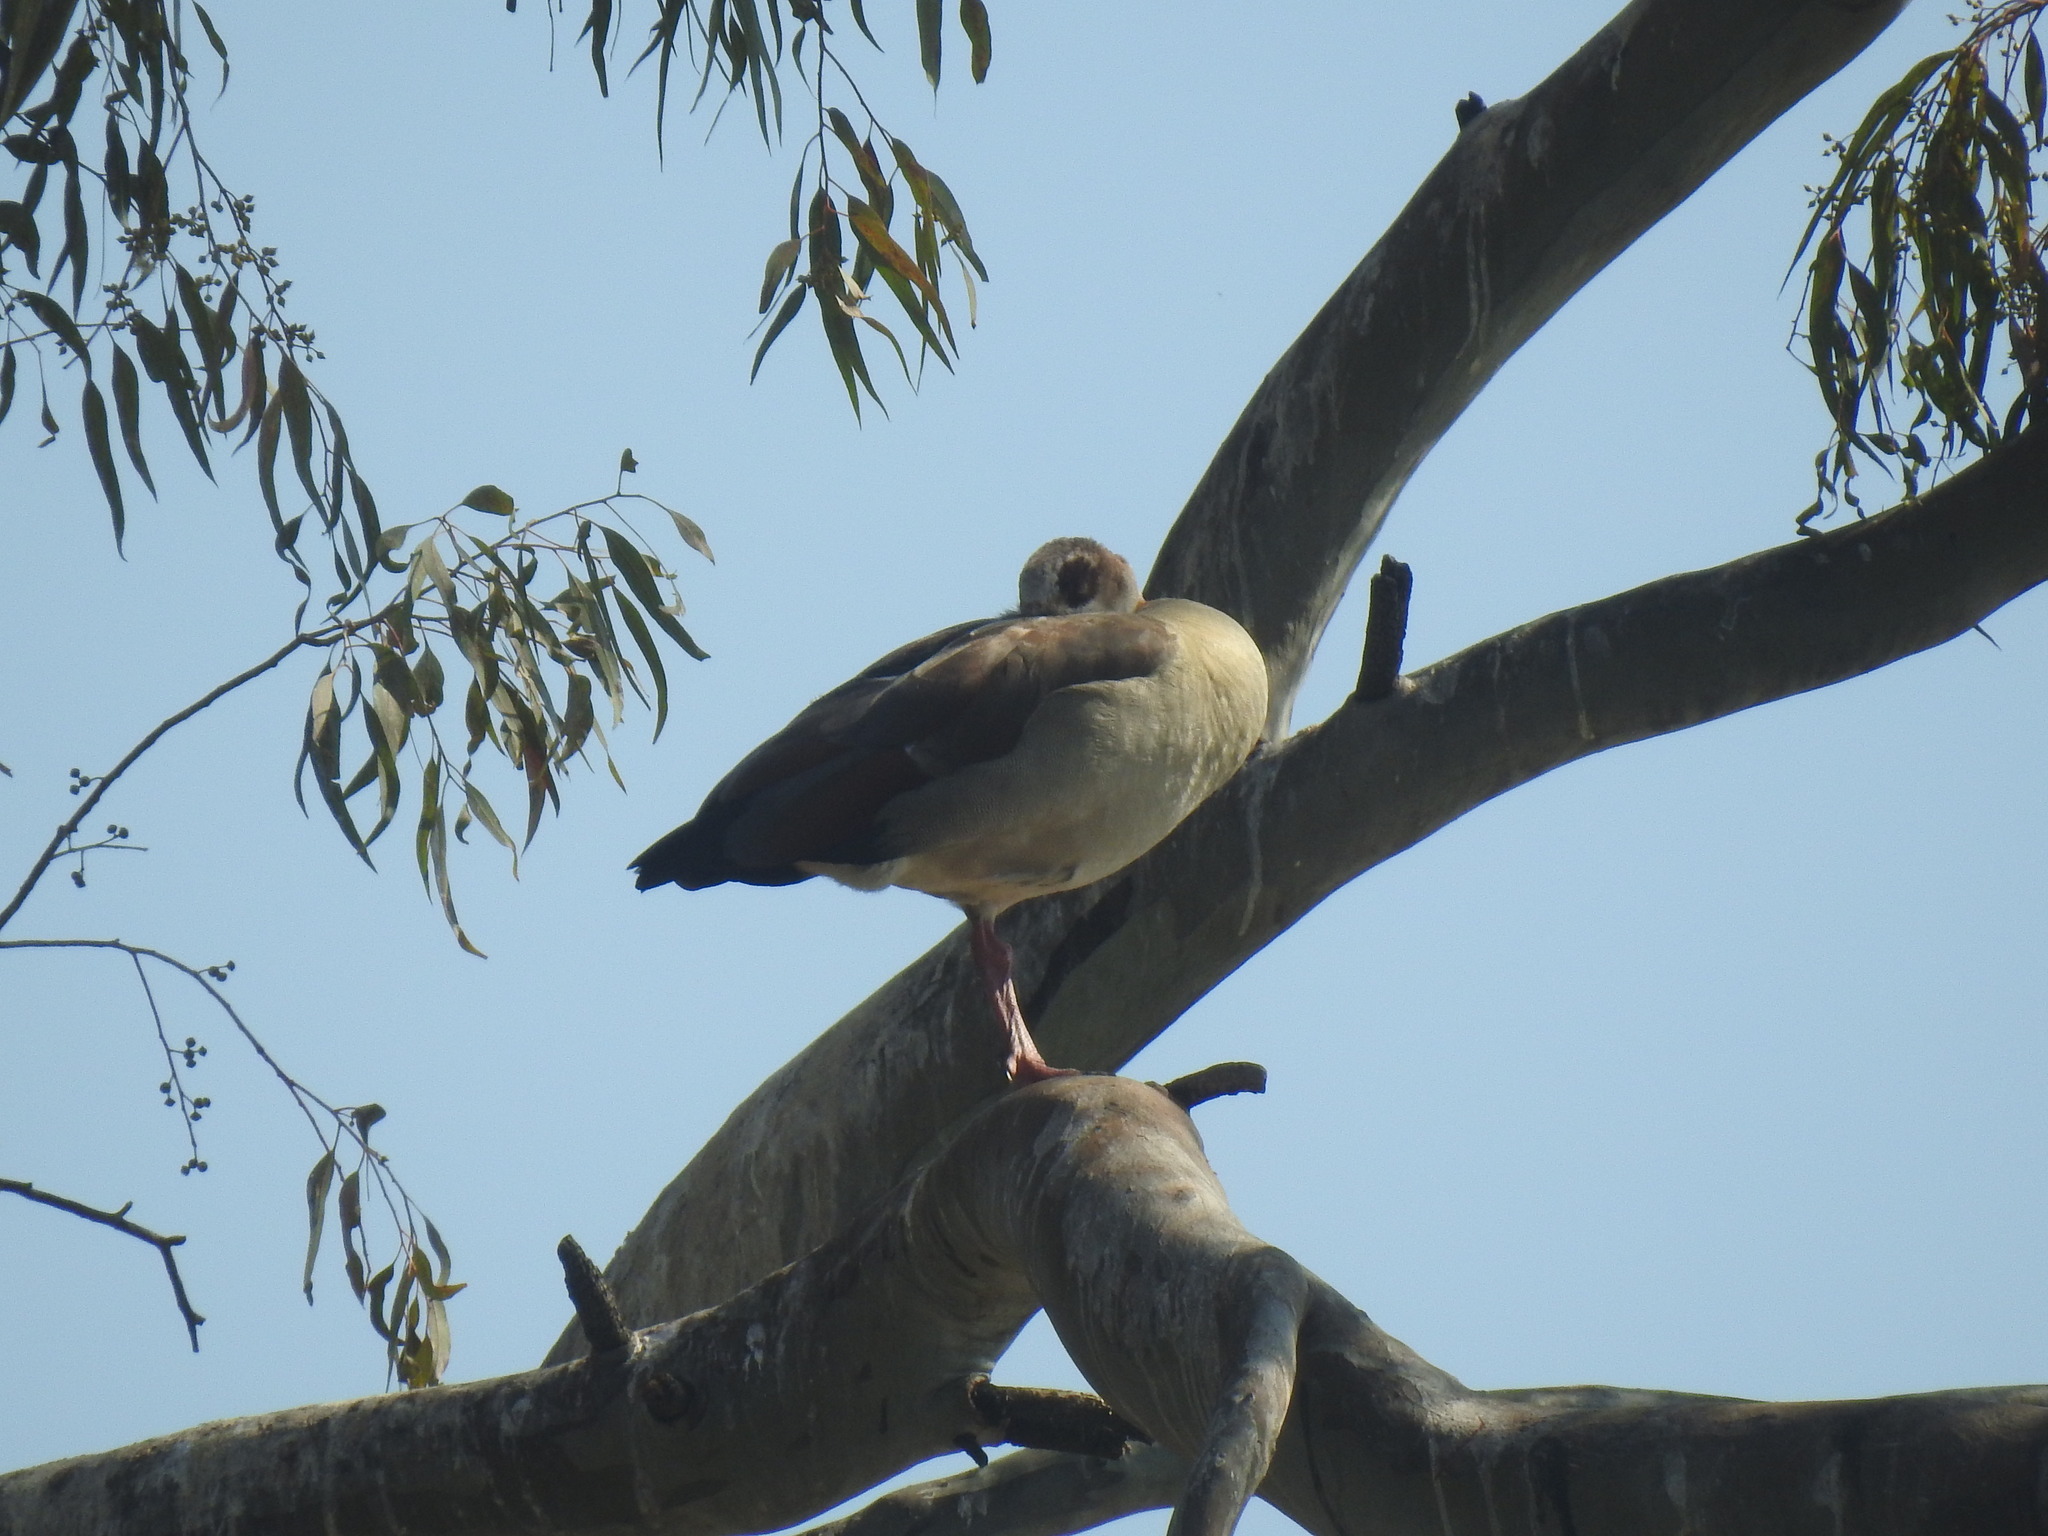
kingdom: Animalia
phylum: Chordata
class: Aves
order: Anseriformes
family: Anatidae
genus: Alopochen
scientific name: Alopochen aegyptiaca
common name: Egyptian goose
